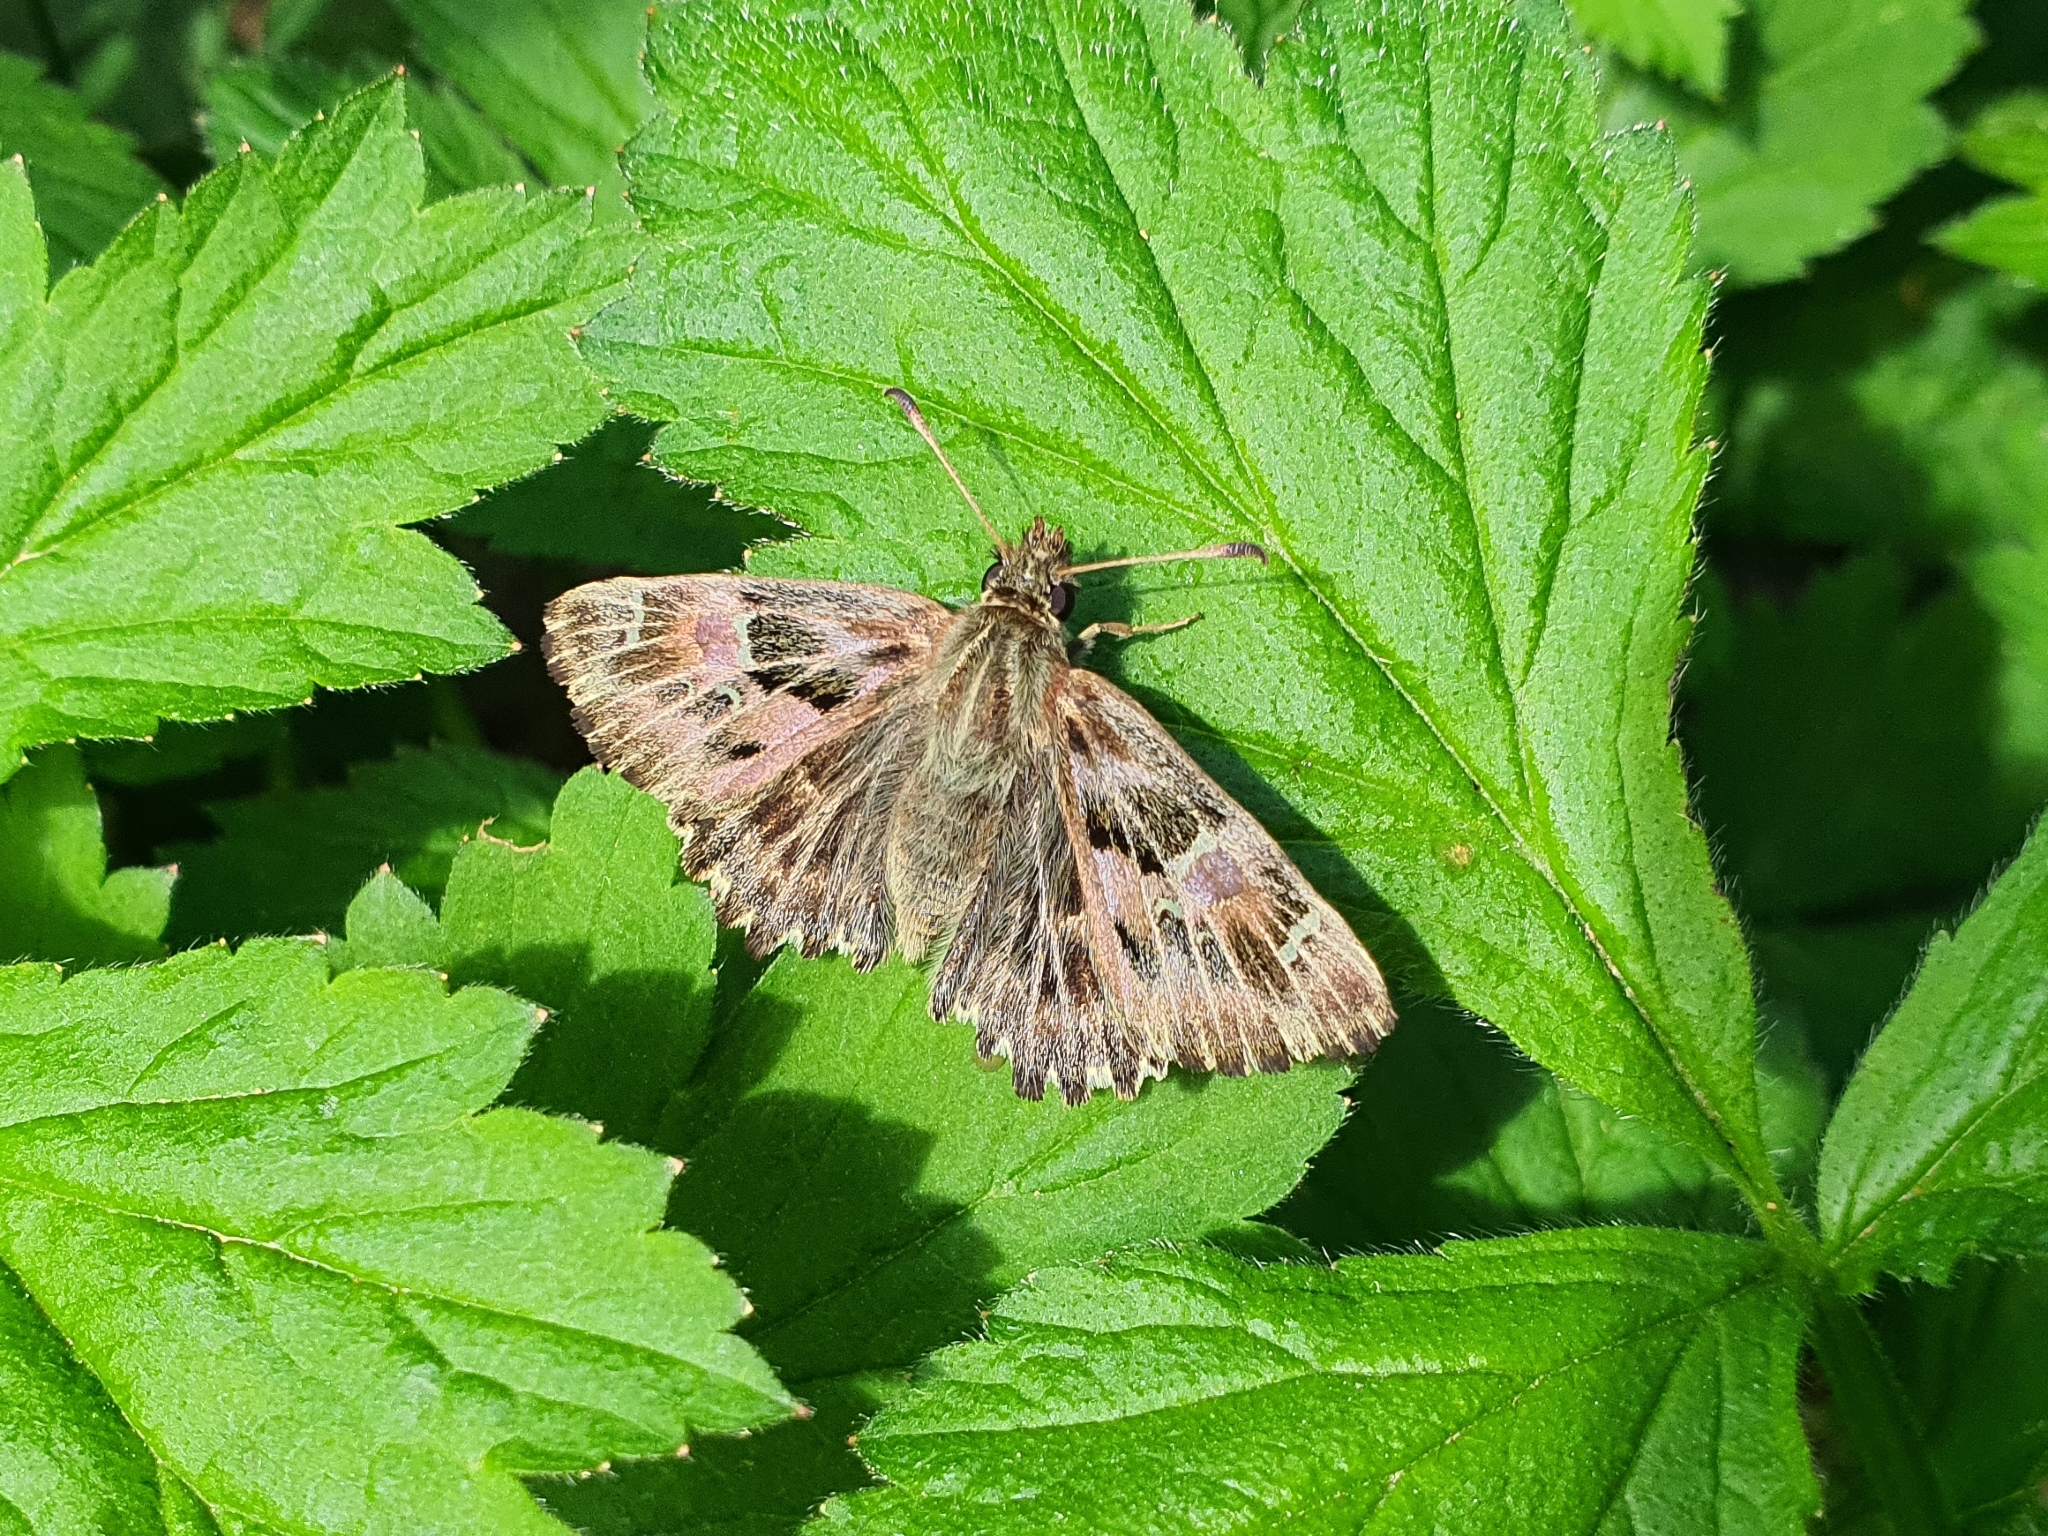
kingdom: Animalia
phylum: Arthropoda
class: Insecta
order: Lepidoptera
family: Hesperiidae
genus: Carcharodus
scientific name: Carcharodus alceae
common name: Mallow skipper
